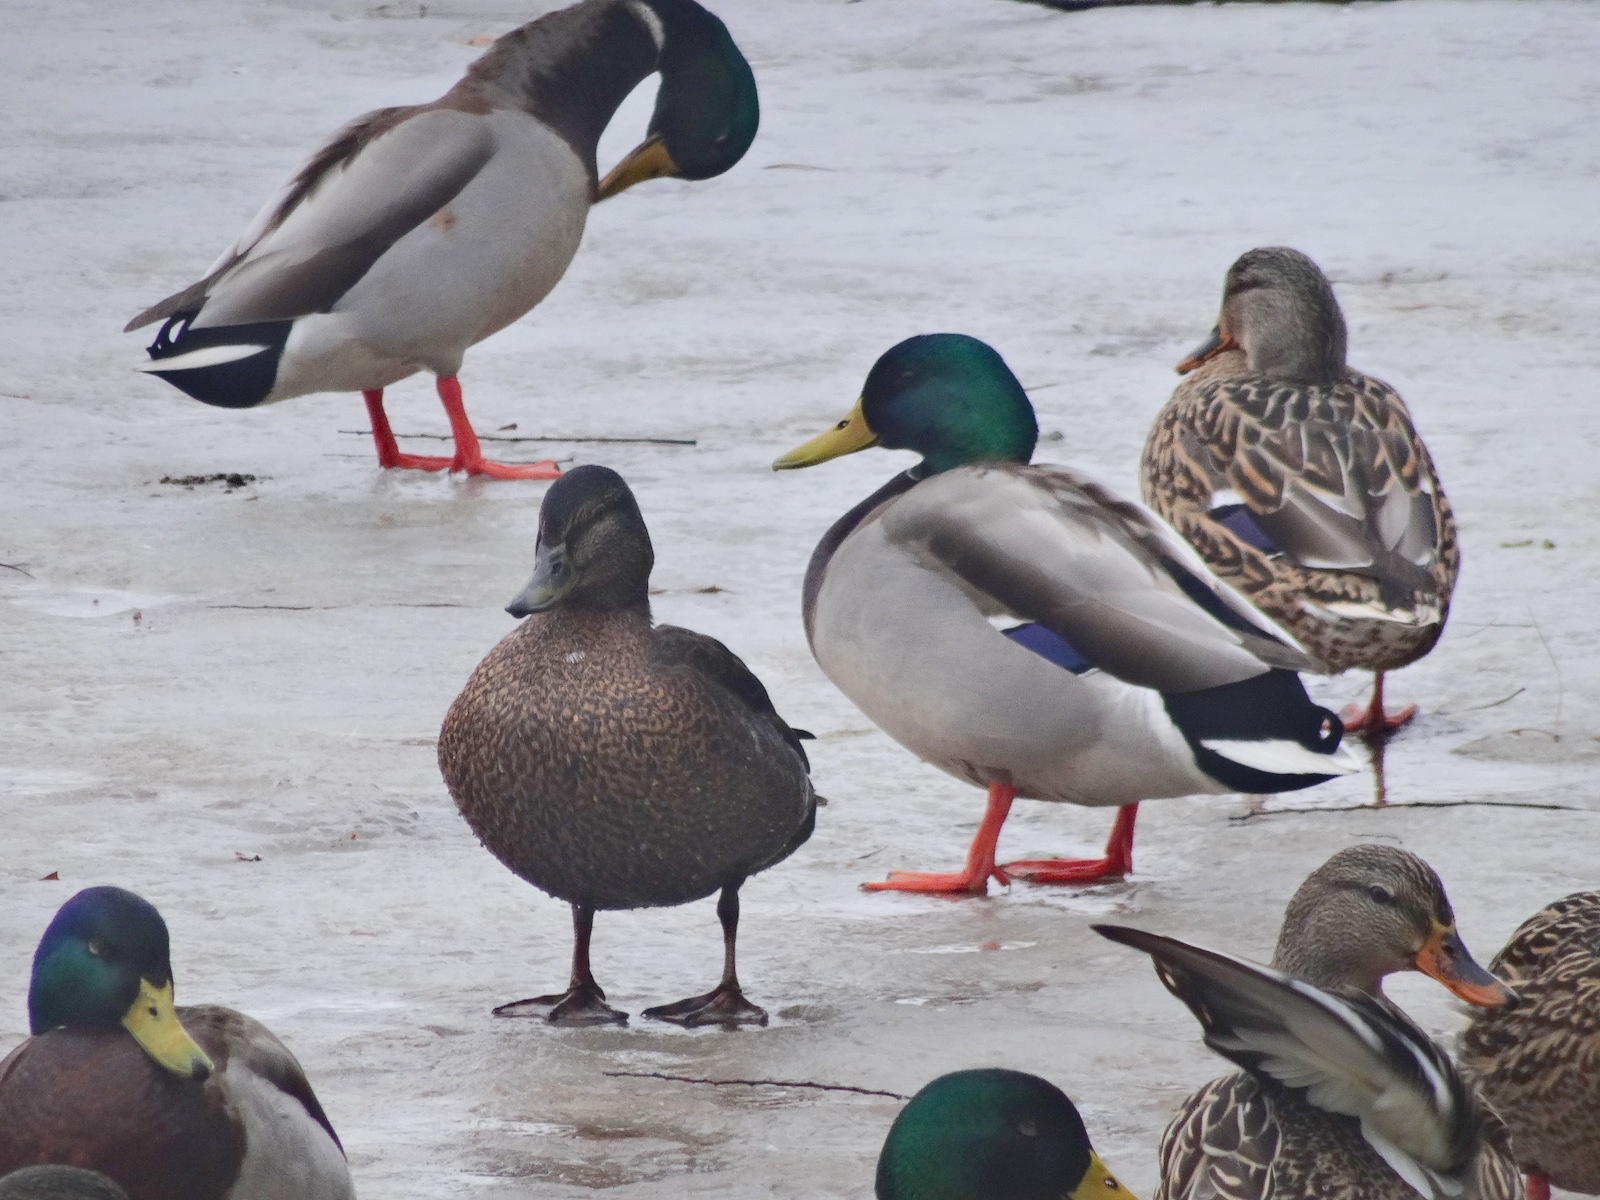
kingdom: Animalia
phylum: Chordata
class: Aves
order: Anseriformes
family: Anatidae
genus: Anas
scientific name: Anas rubripes
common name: American black duck
